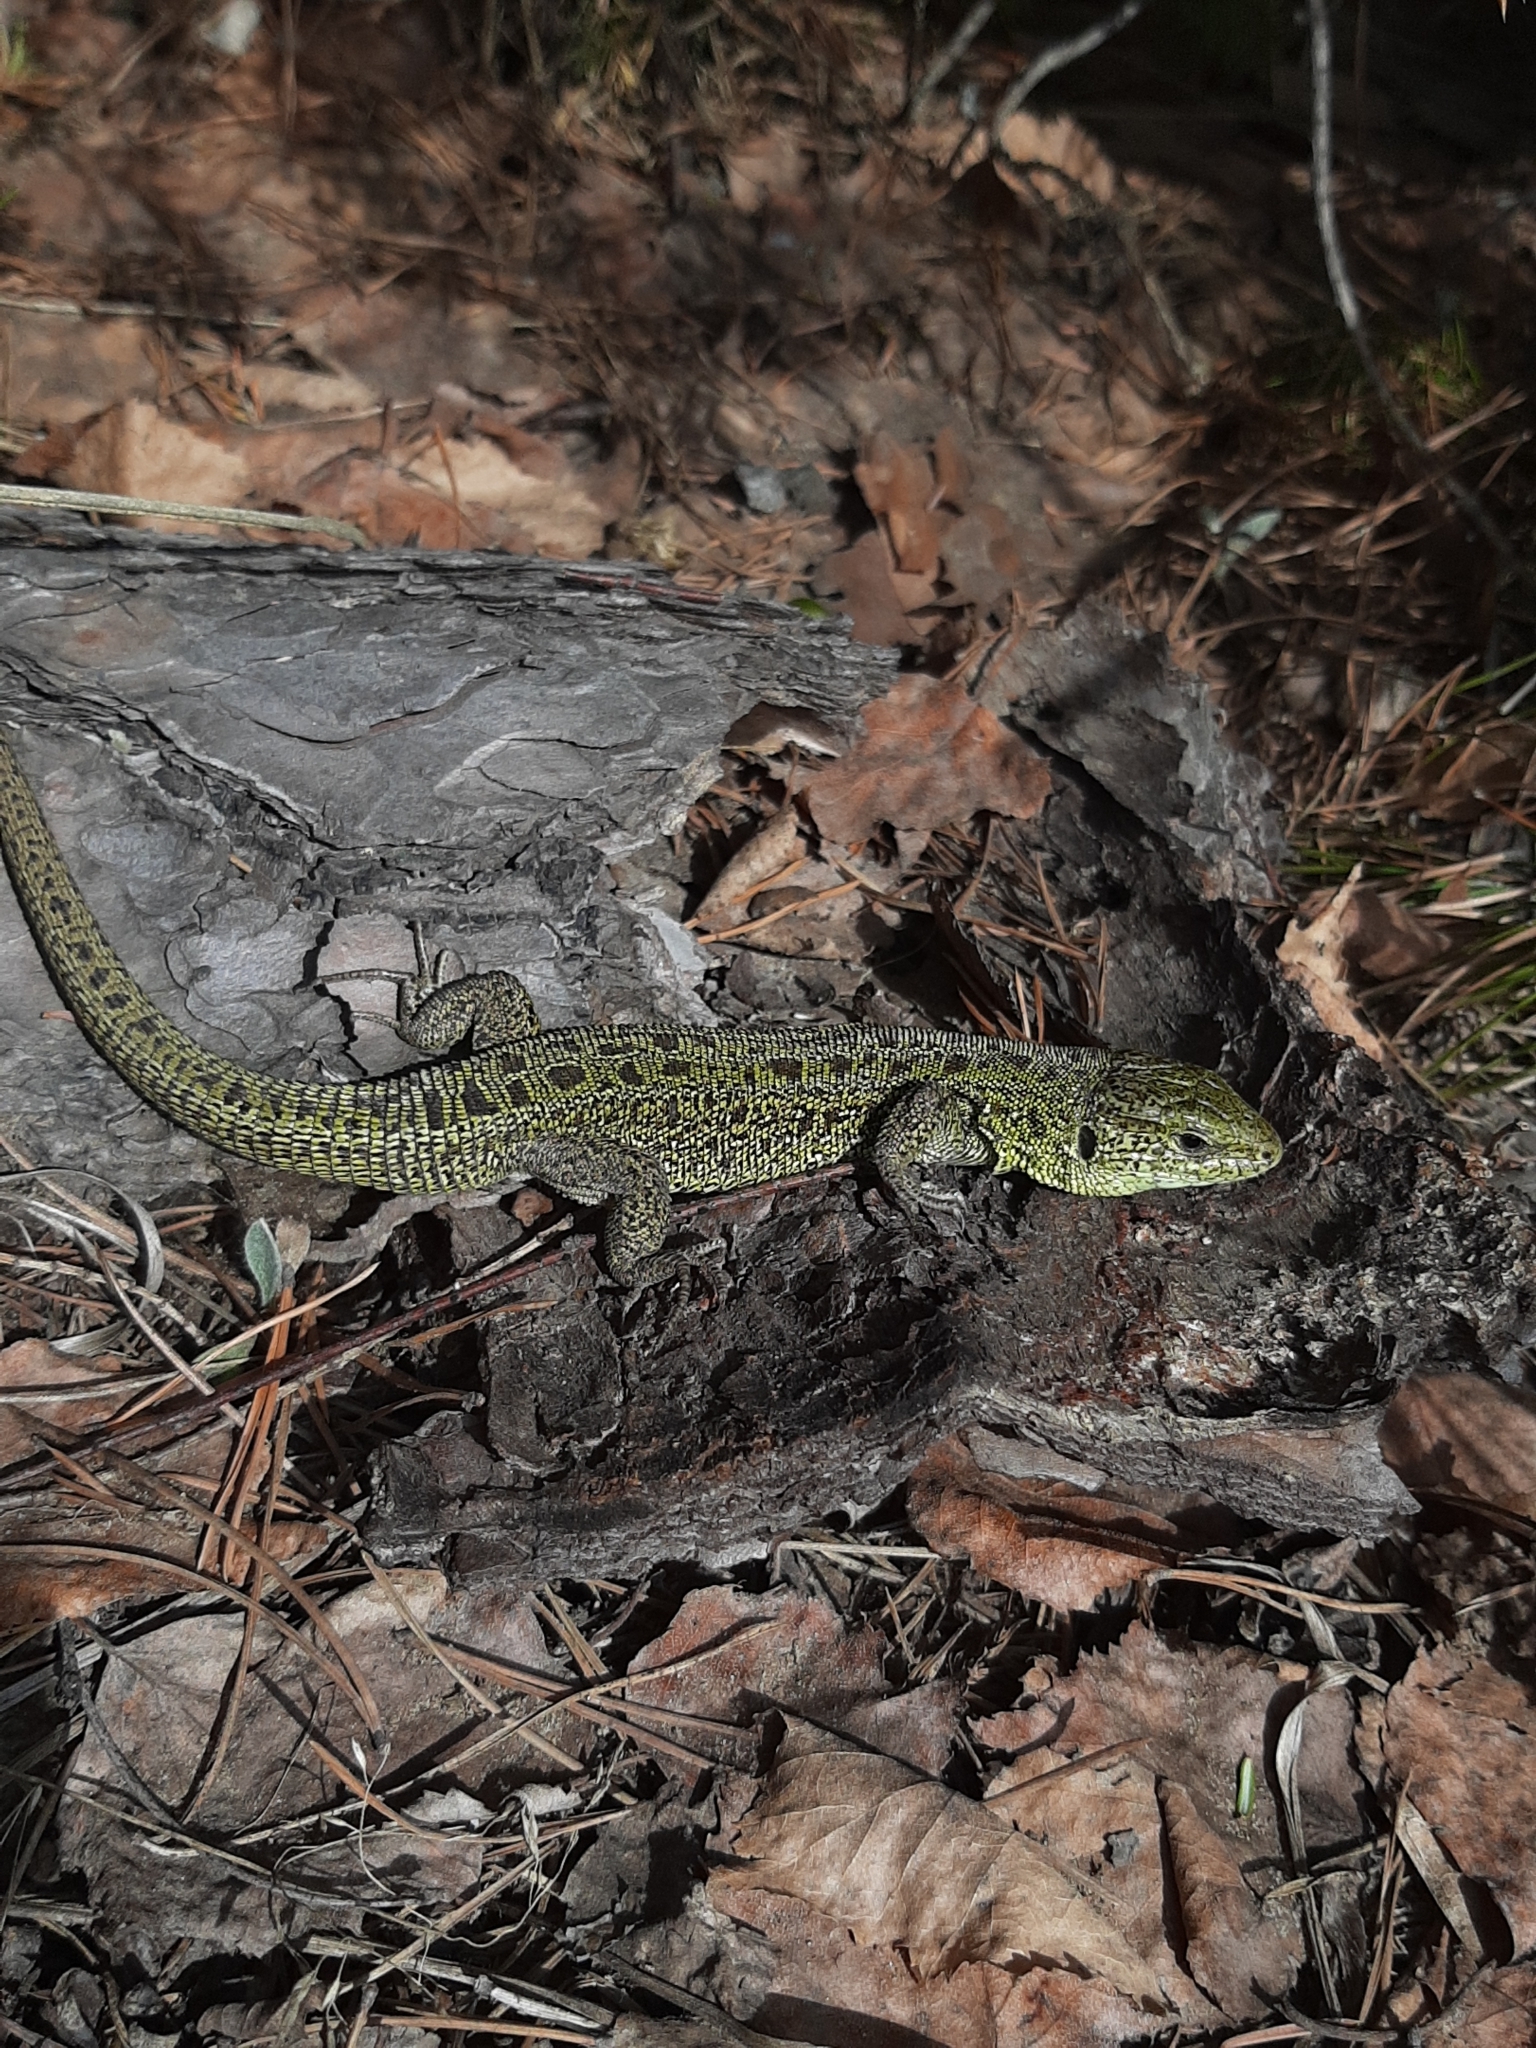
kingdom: Animalia
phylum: Chordata
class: Squamata
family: Lacertidae
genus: Lacerta
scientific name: Lacerta agilis
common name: Sand lizard
